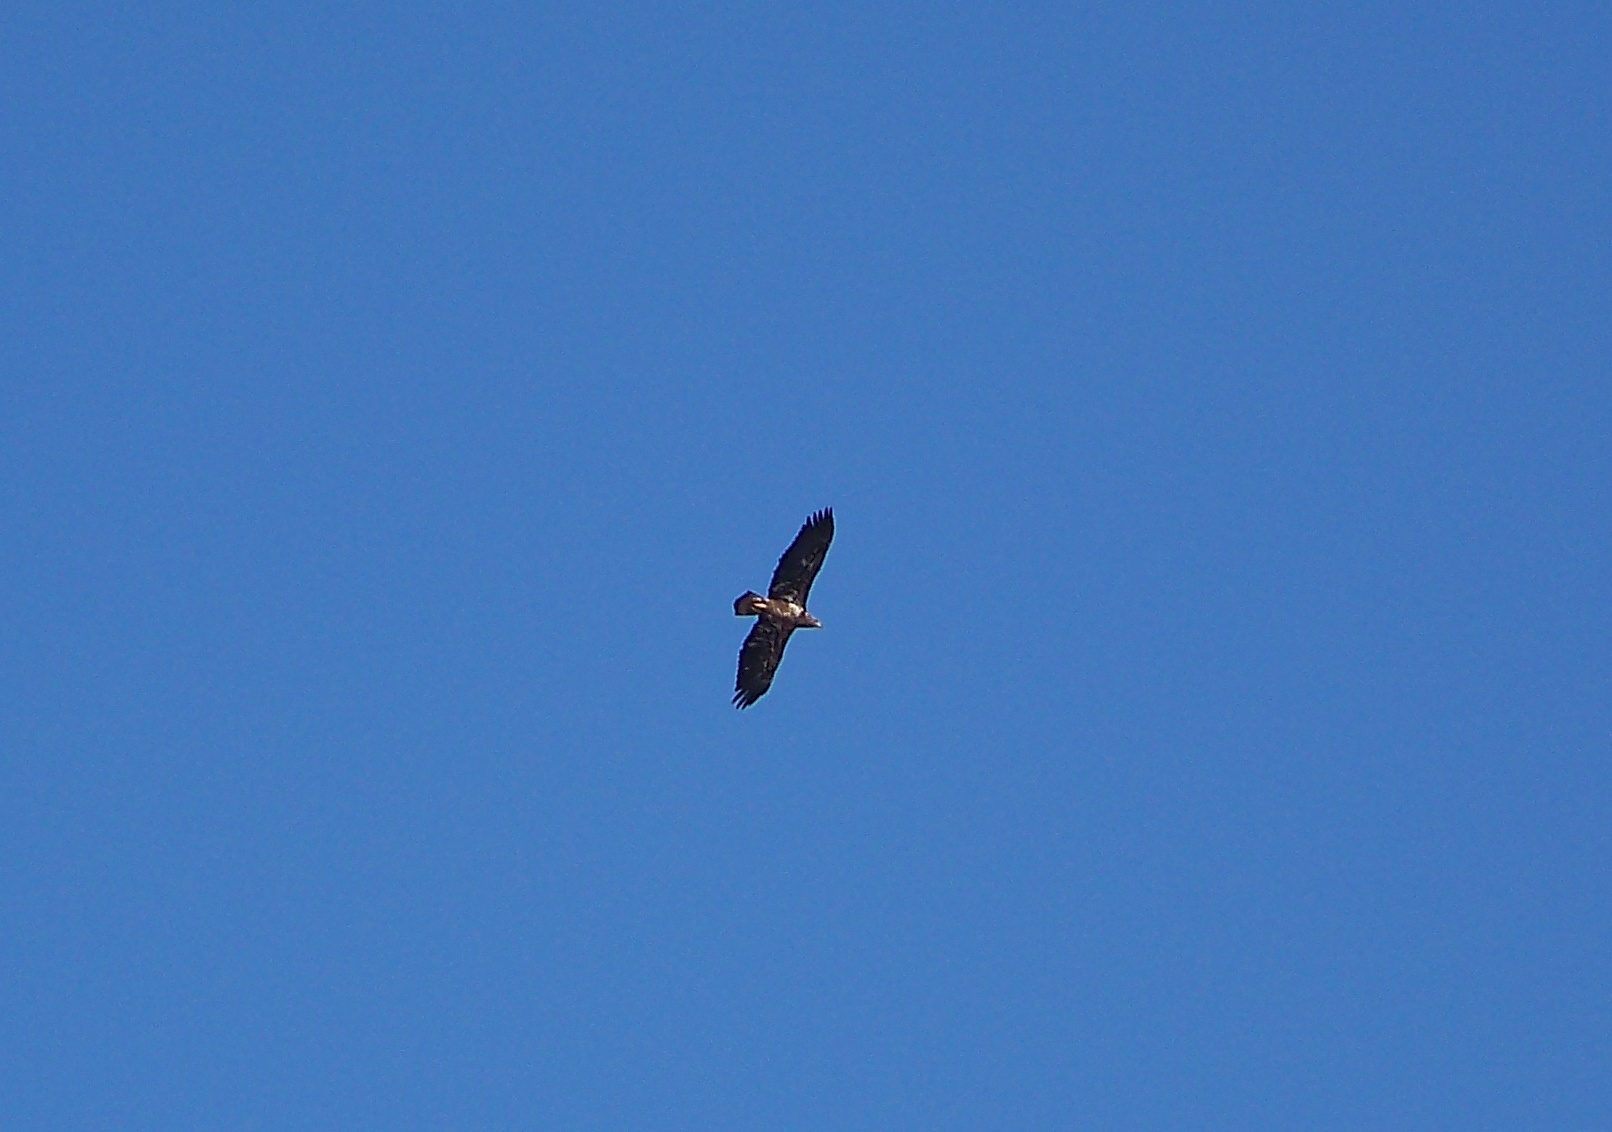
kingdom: Animalia
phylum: Chordata
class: Aves
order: Accipitriformes
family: Accipitridae
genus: Haliaeetus
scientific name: Haliaeetus leucocephalus
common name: Bald eagle
